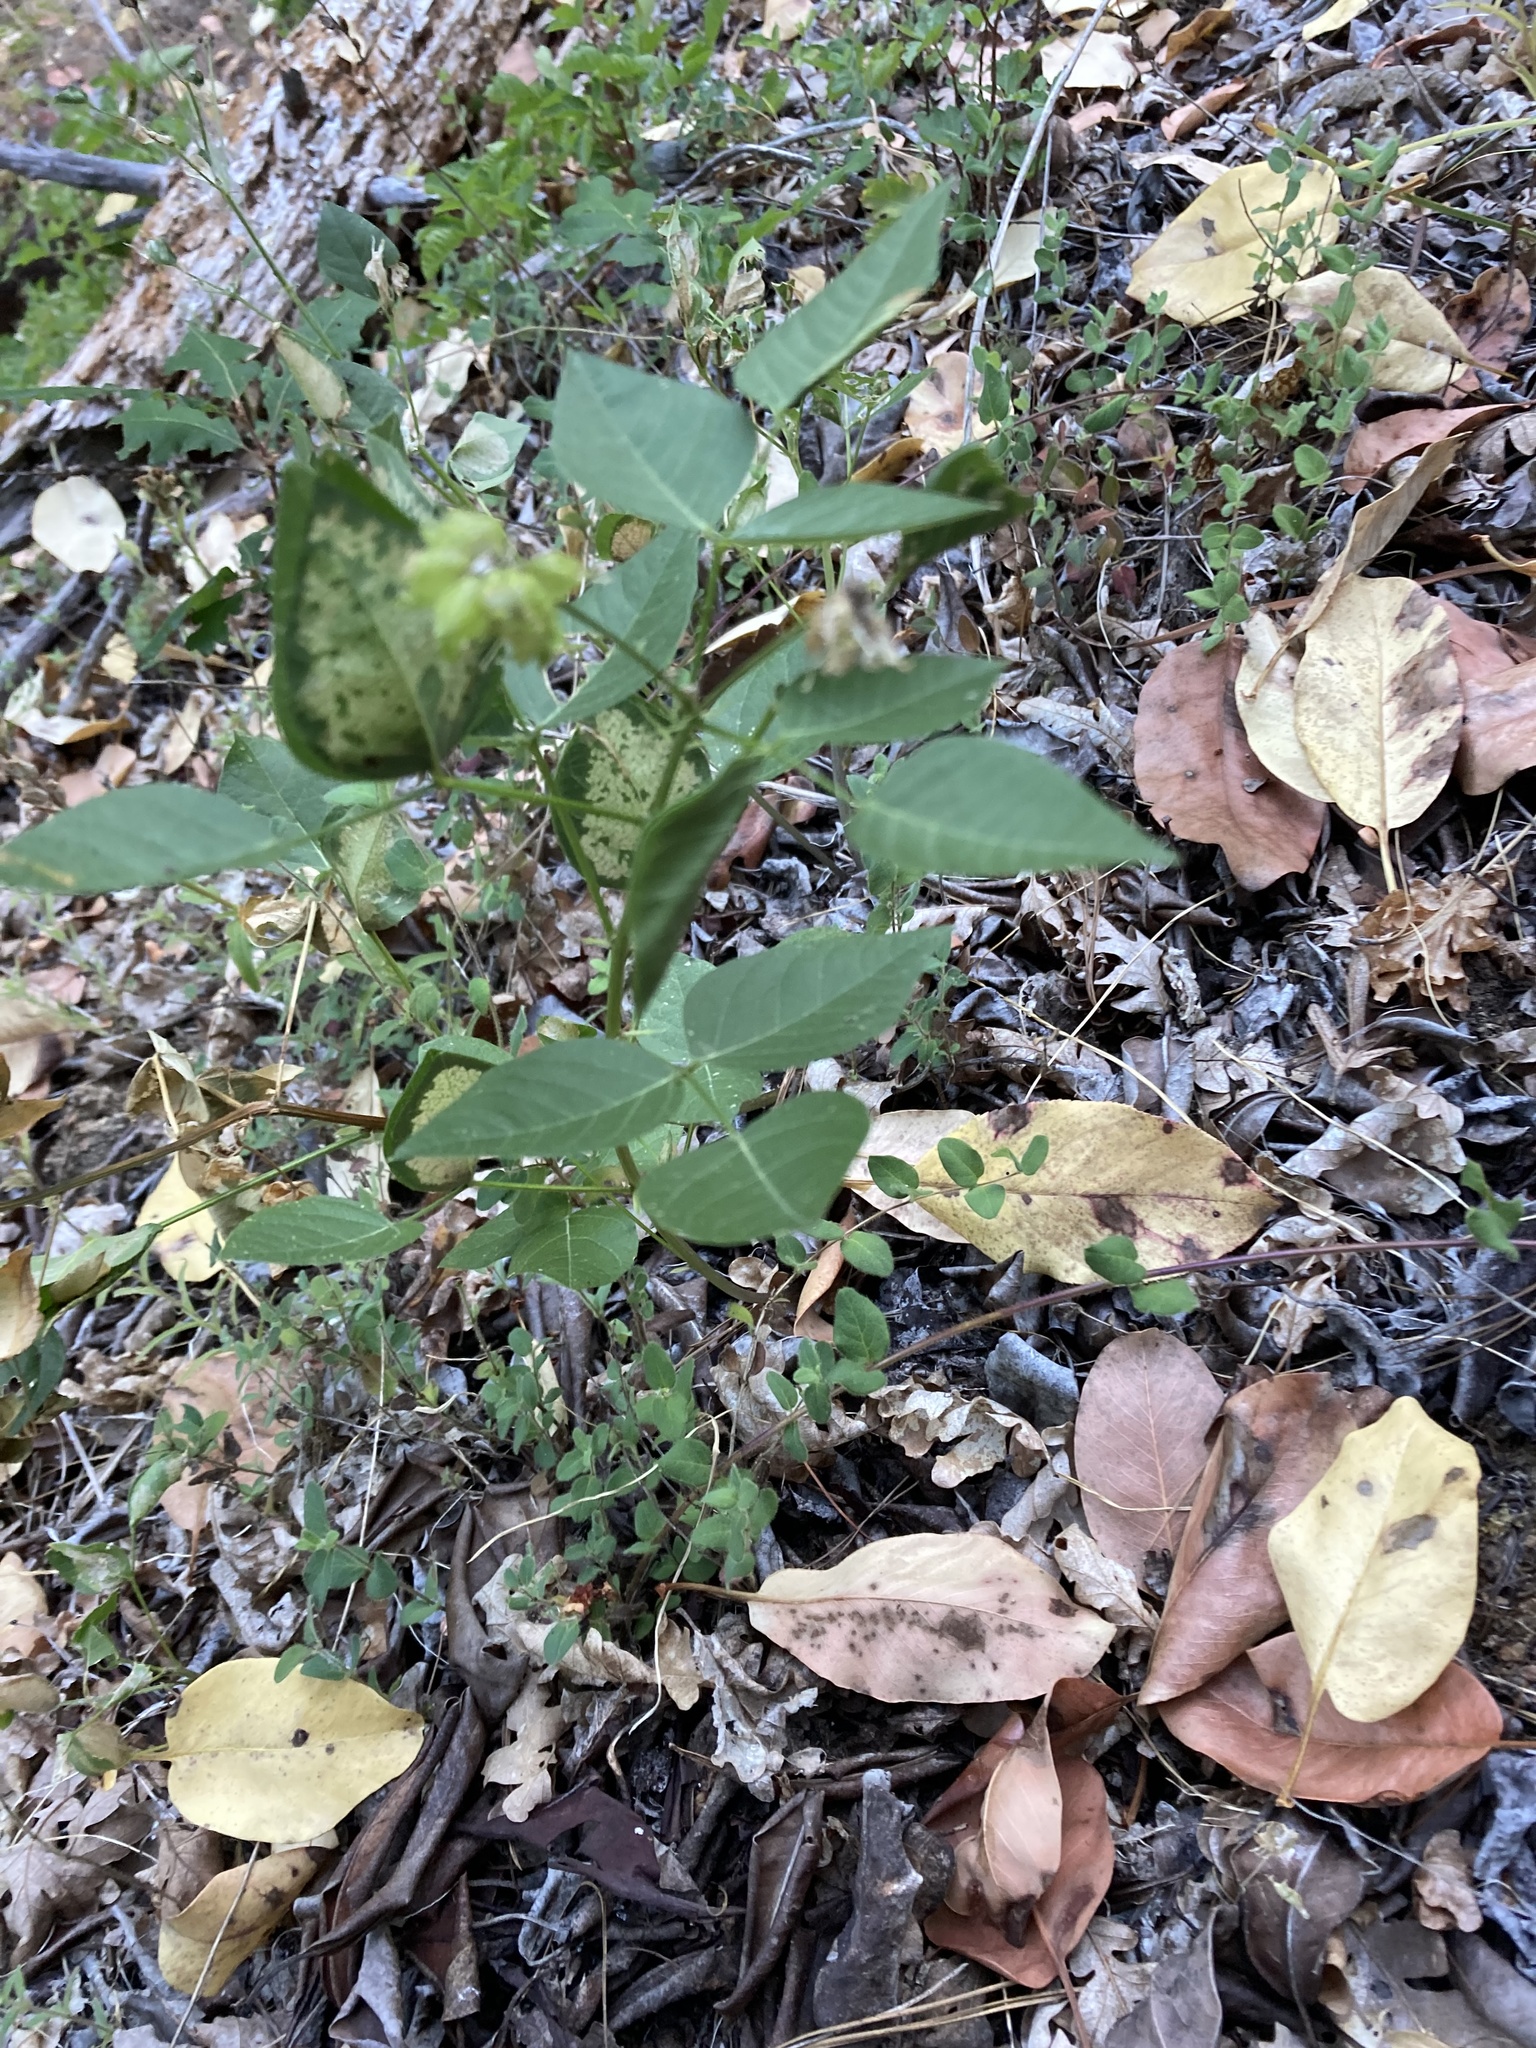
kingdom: Plantae
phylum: Tracheophyta
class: Magnoliopsida
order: Fabales
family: Fabaceae
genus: Rupertia
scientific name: Rupertia physodes
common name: California-tea
